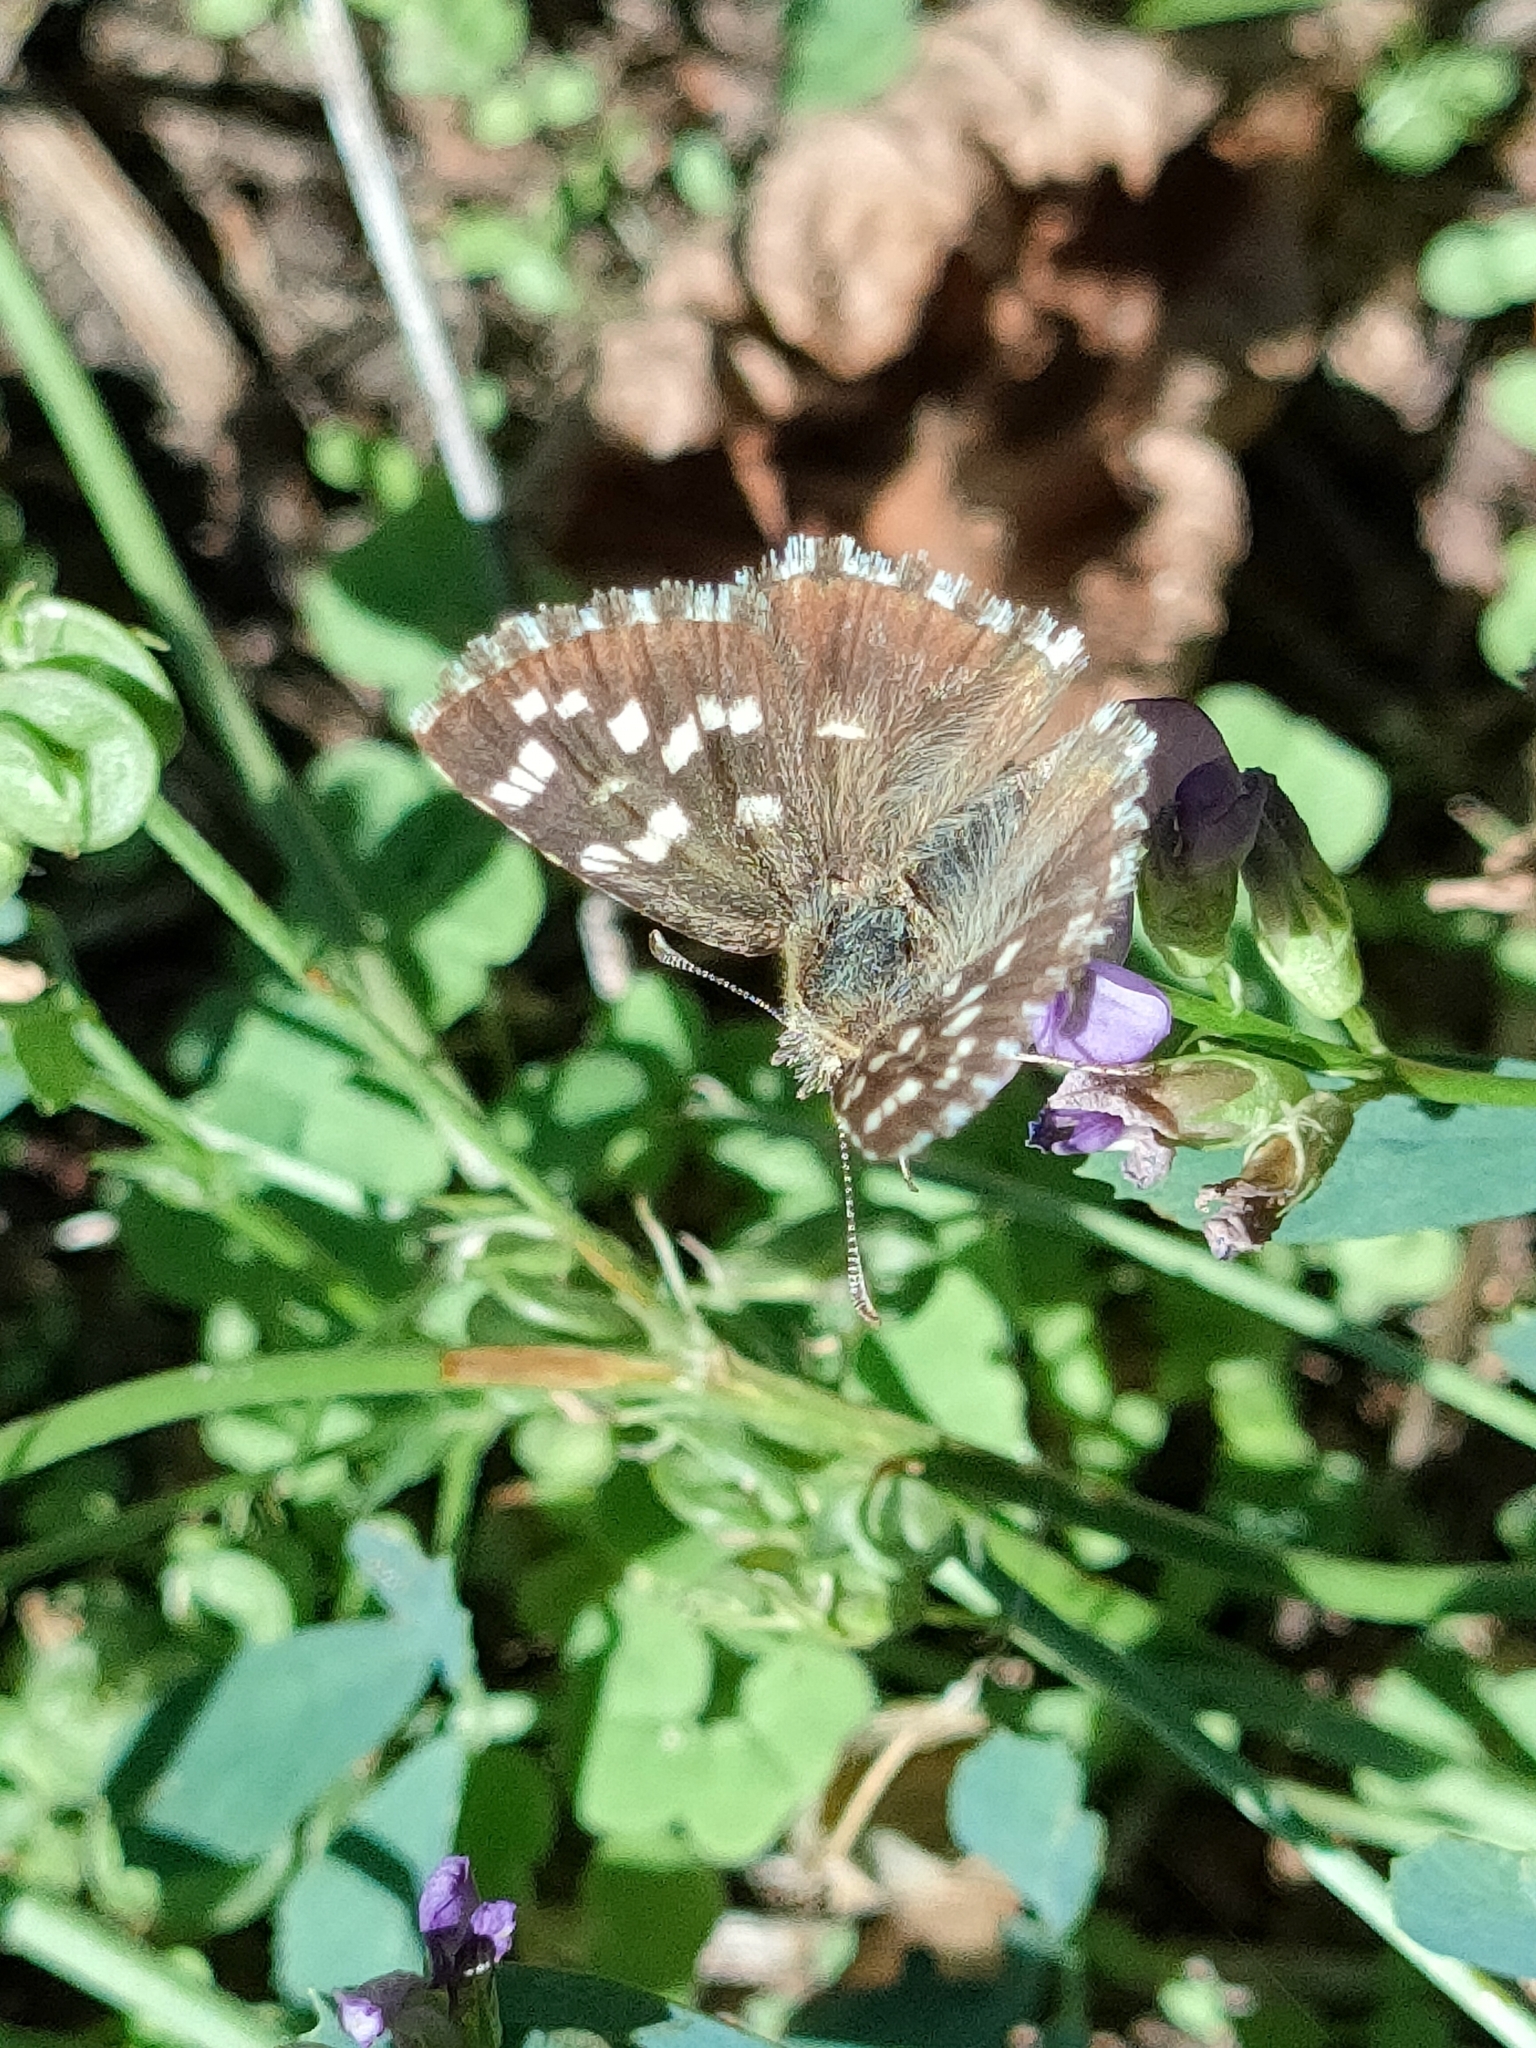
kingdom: Animalia
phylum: Arthropoda
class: Insecta
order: Lepidoptera
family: Hesperiidae
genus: Pyrgus
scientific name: Pyrgus malvoides
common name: Southern grizzled skipper
